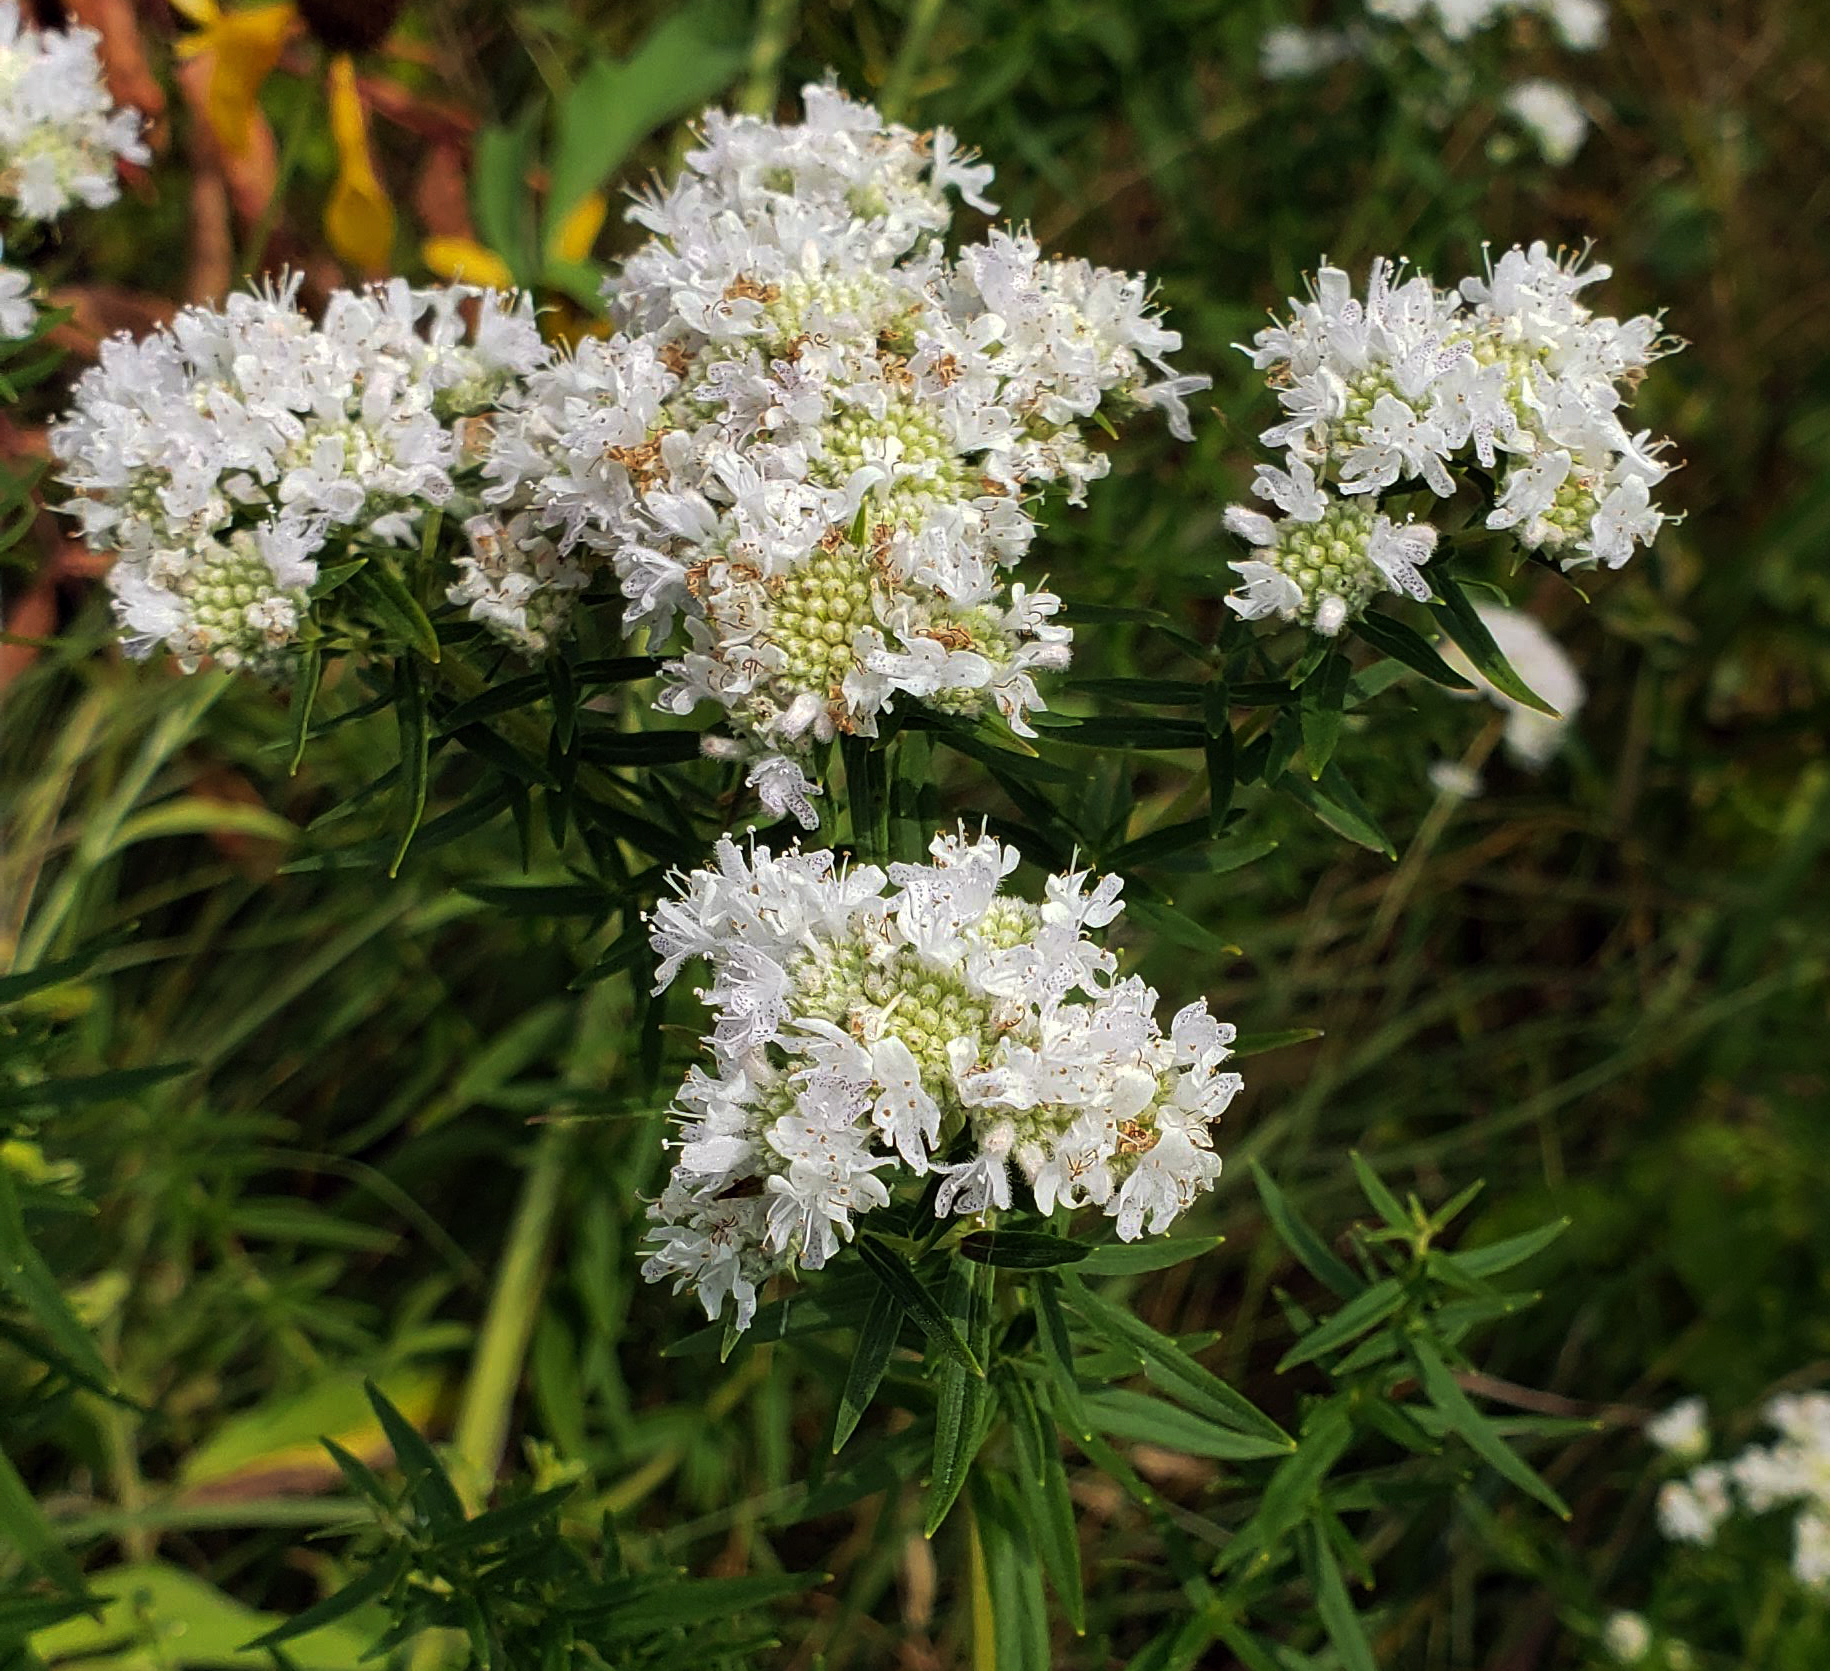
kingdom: Plantae
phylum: Tracheophyta
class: Magnoliopsida
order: Lamiales
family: Lamiaceae
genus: Pycnanthemum
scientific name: Pycnanthemum virginianum
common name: Virginia mountain-mint
